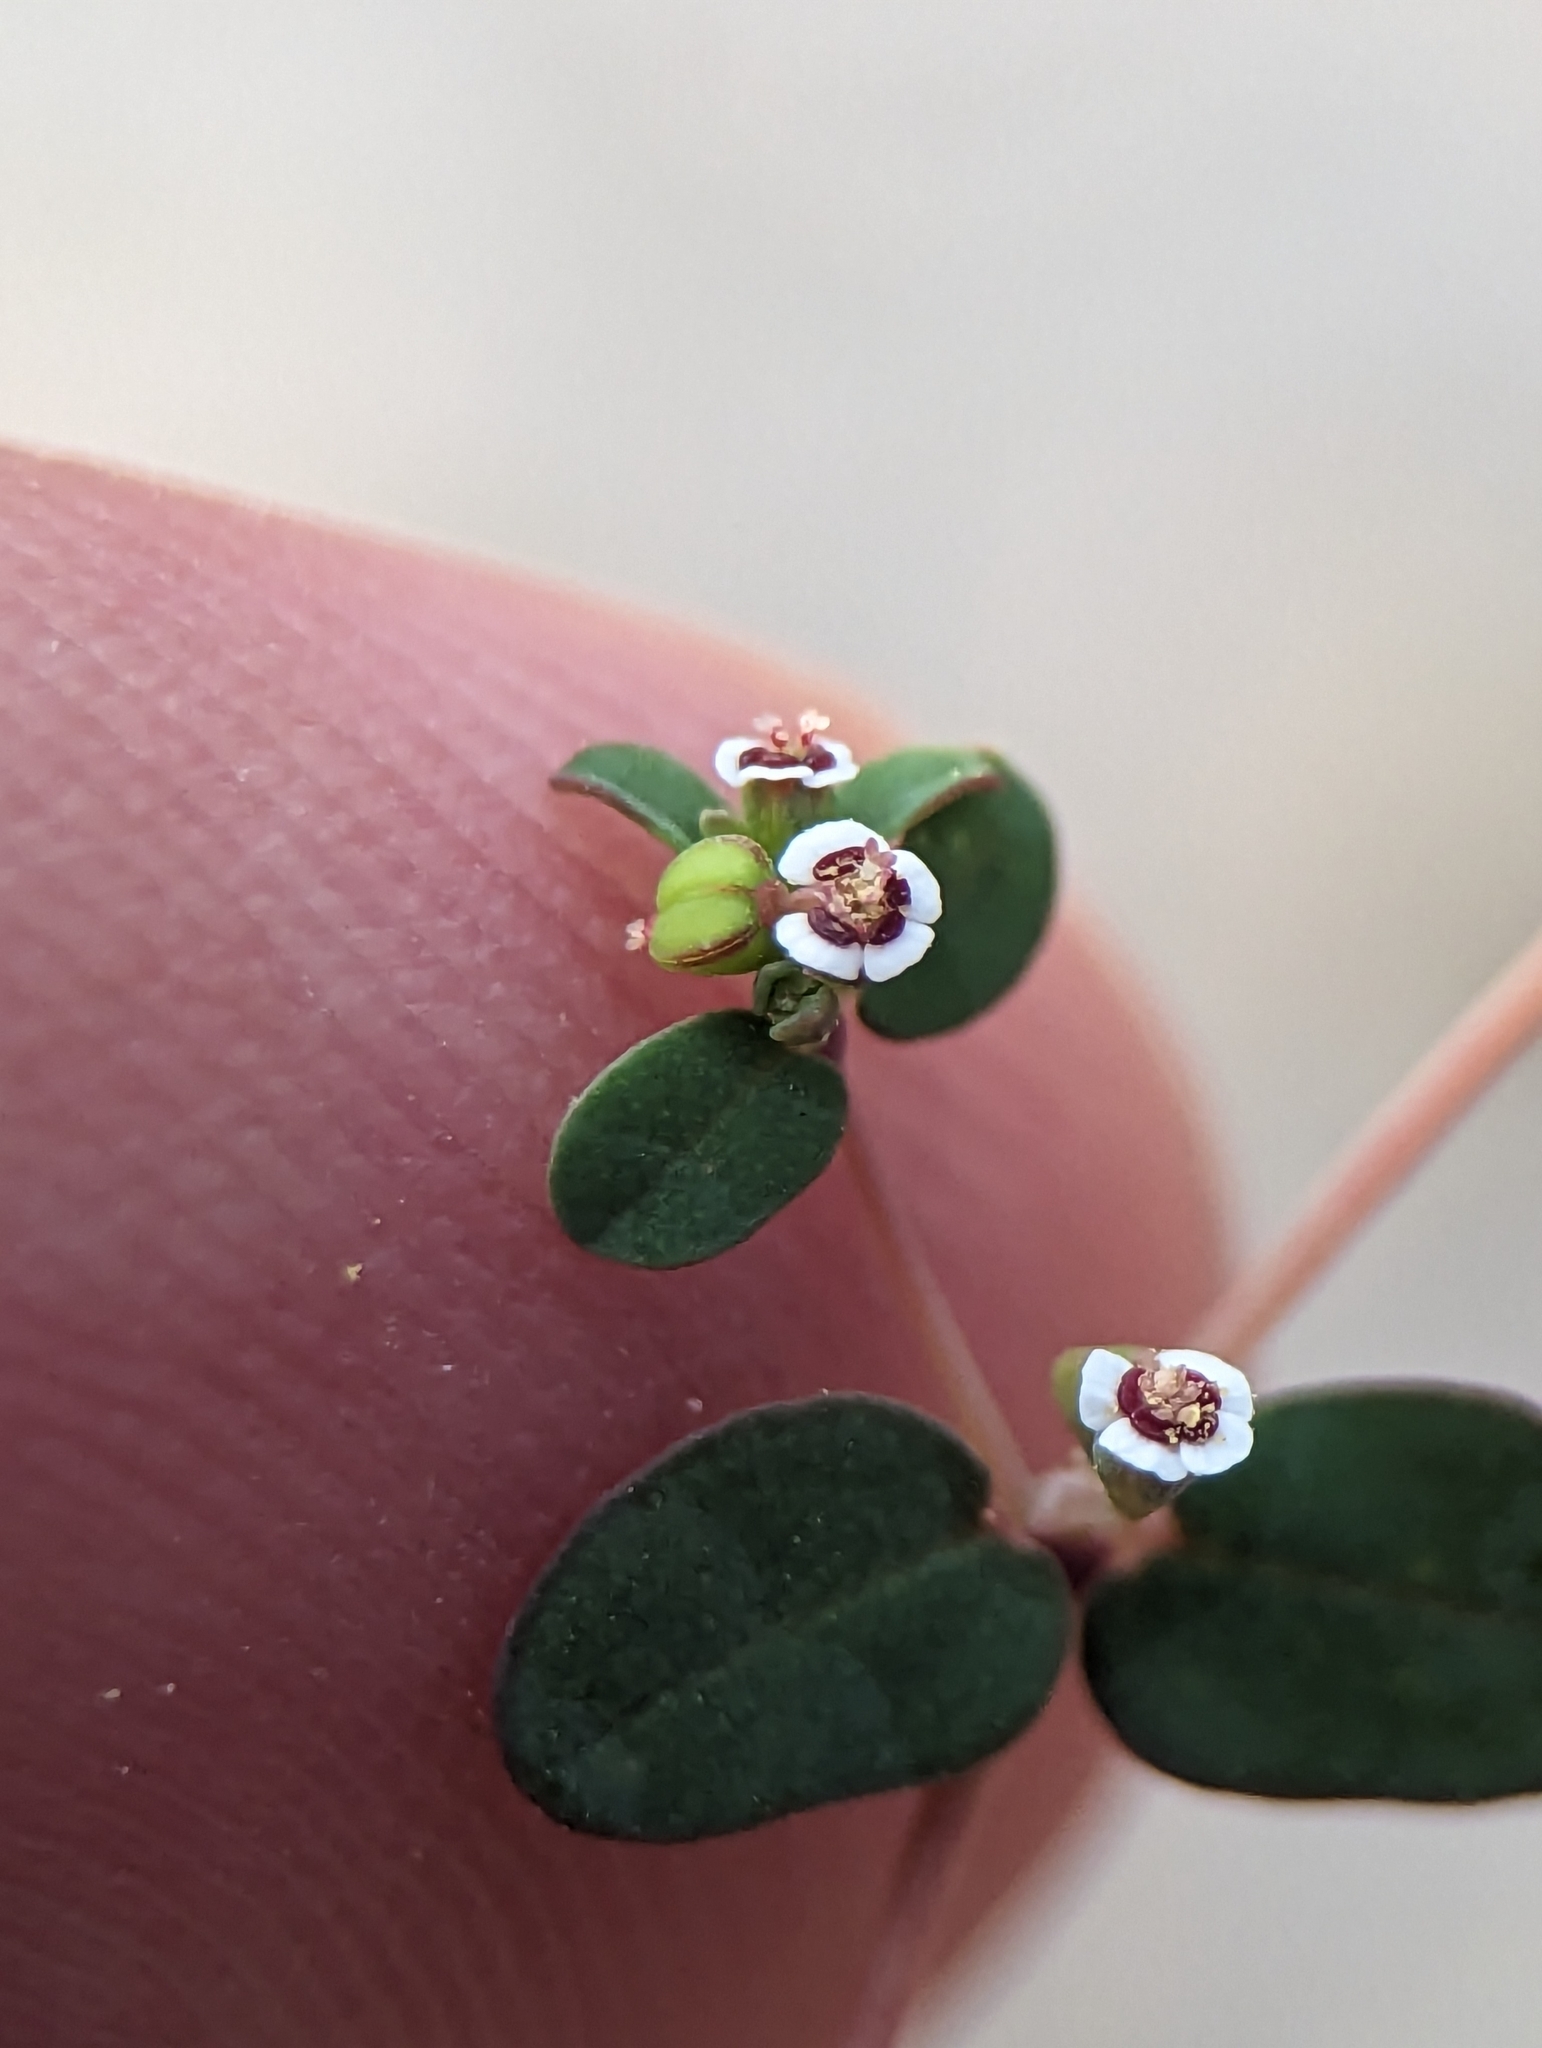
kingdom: Plantae
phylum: Tracheophyta
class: Magnoliopsida
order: Malpighiales
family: Euphorbiaceae
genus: Euphorbia
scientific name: Euphorbia polycarpa
